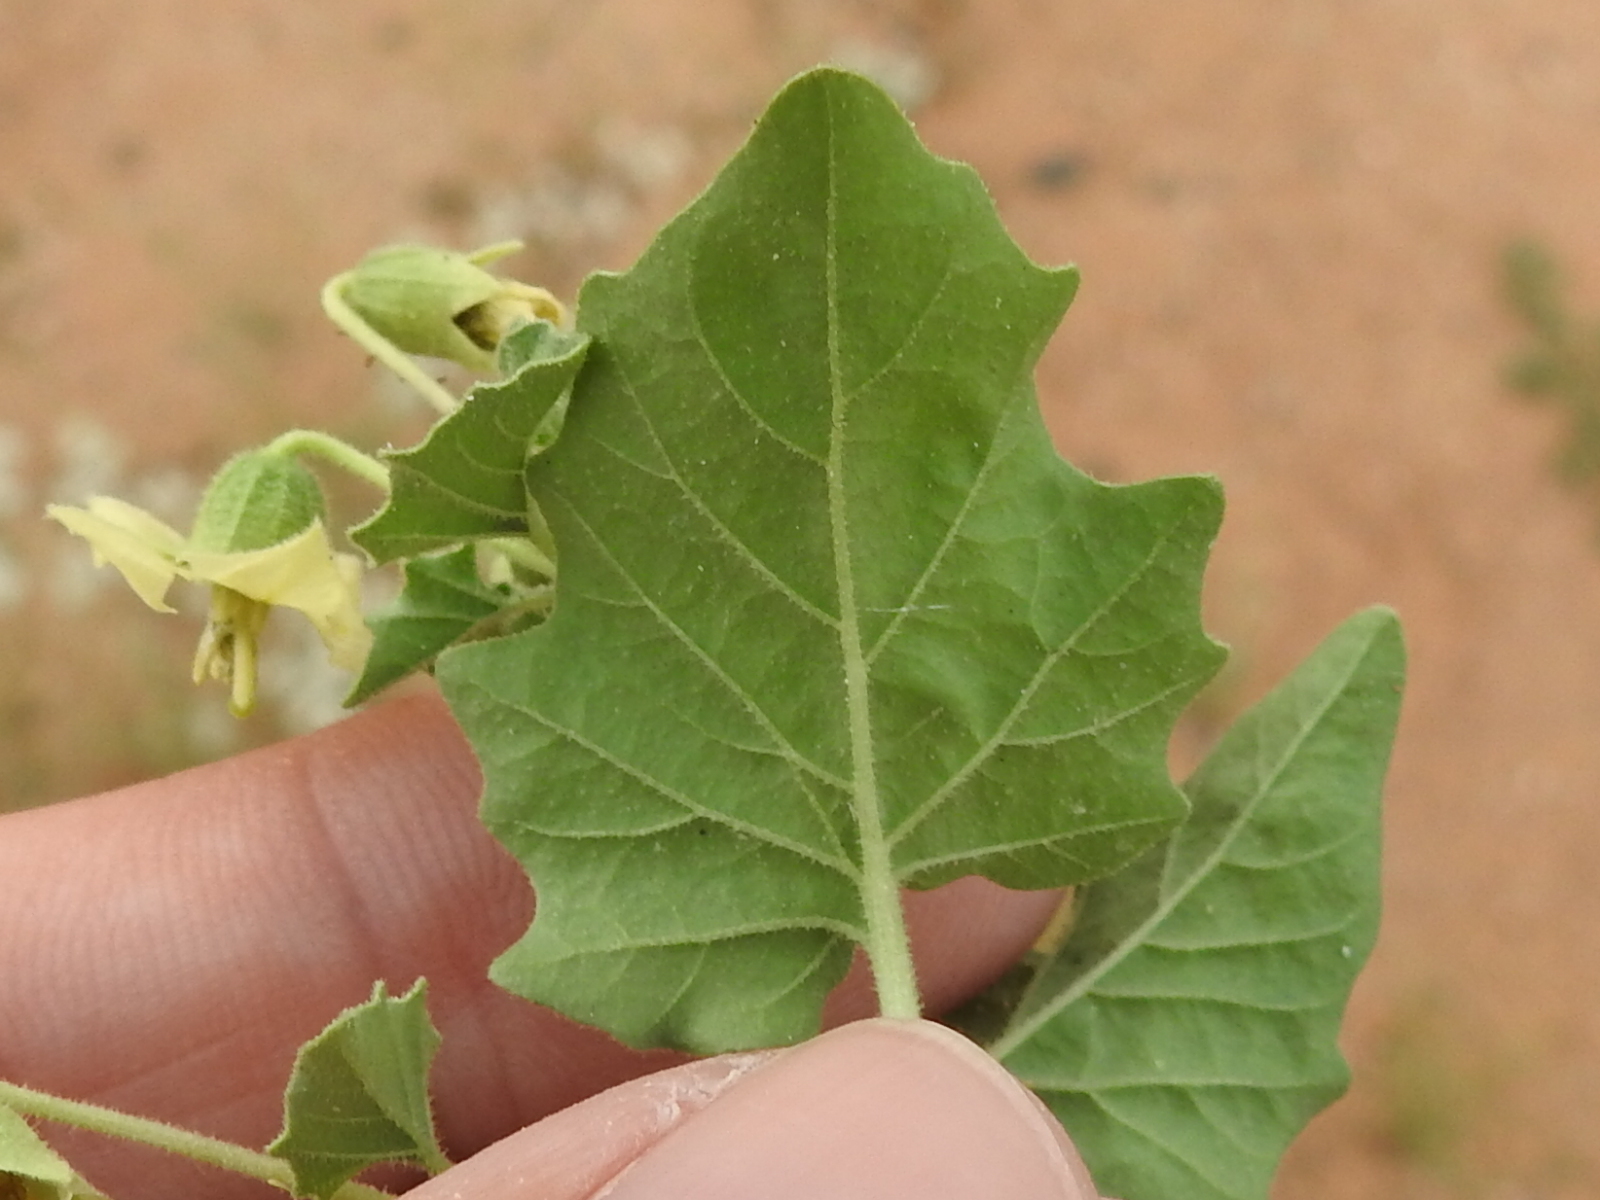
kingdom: Plantae
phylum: Tracheophyta
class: Magnoliopsida
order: Solanales
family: Solanaceae
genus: Physalis
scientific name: Physalis hederifolia
